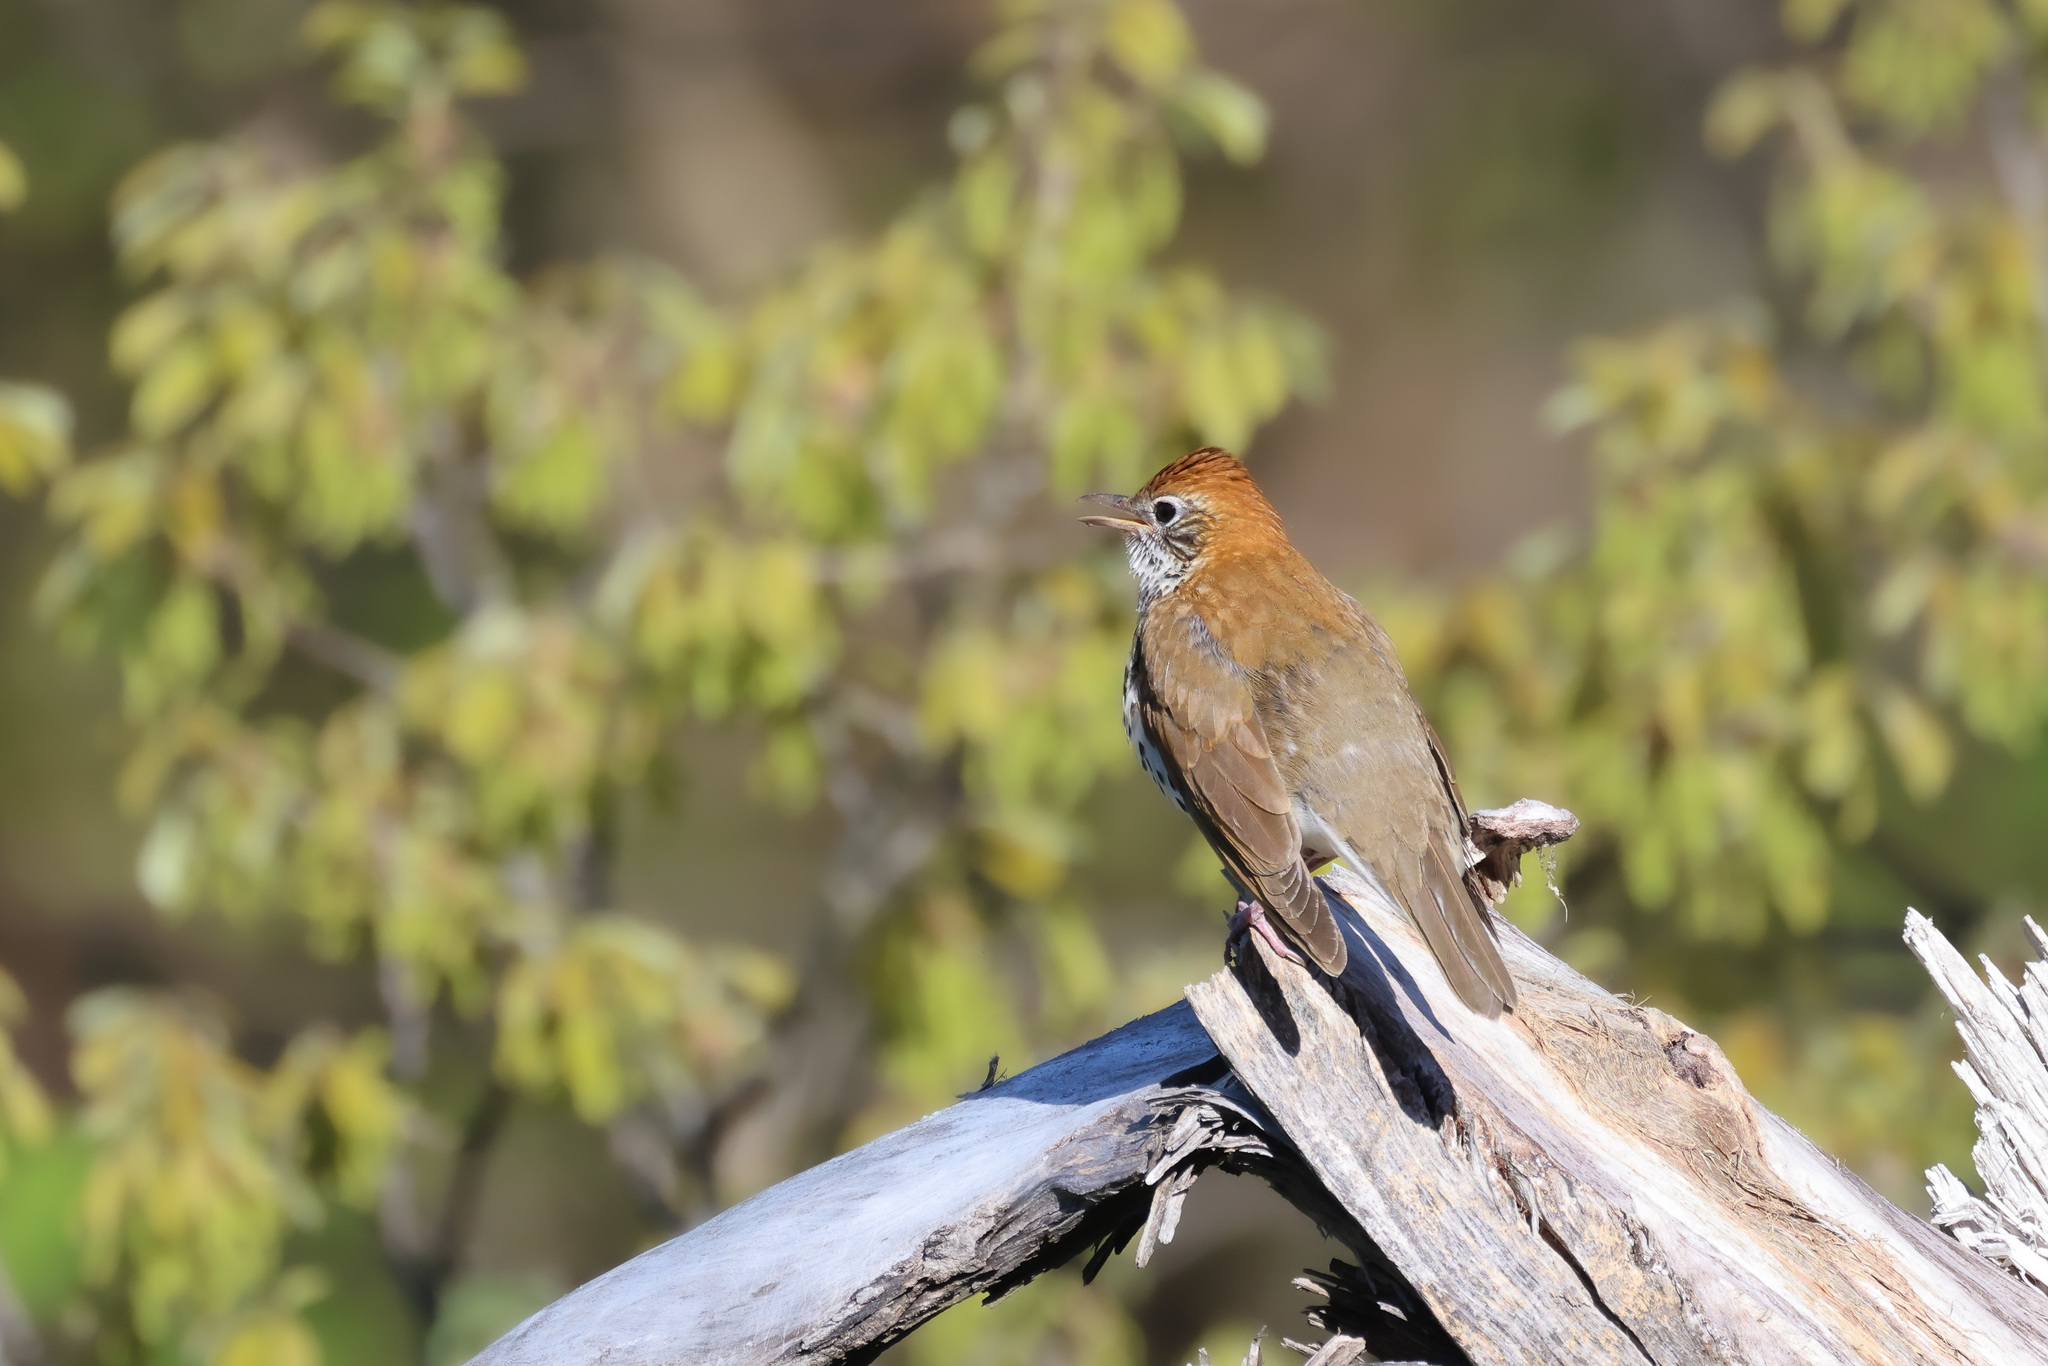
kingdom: Animalia
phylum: Chordata
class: Aves
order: Passeriformes
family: Turdidae
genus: Hylocichla
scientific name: Hylocichla mustelina
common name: Wood thrush
